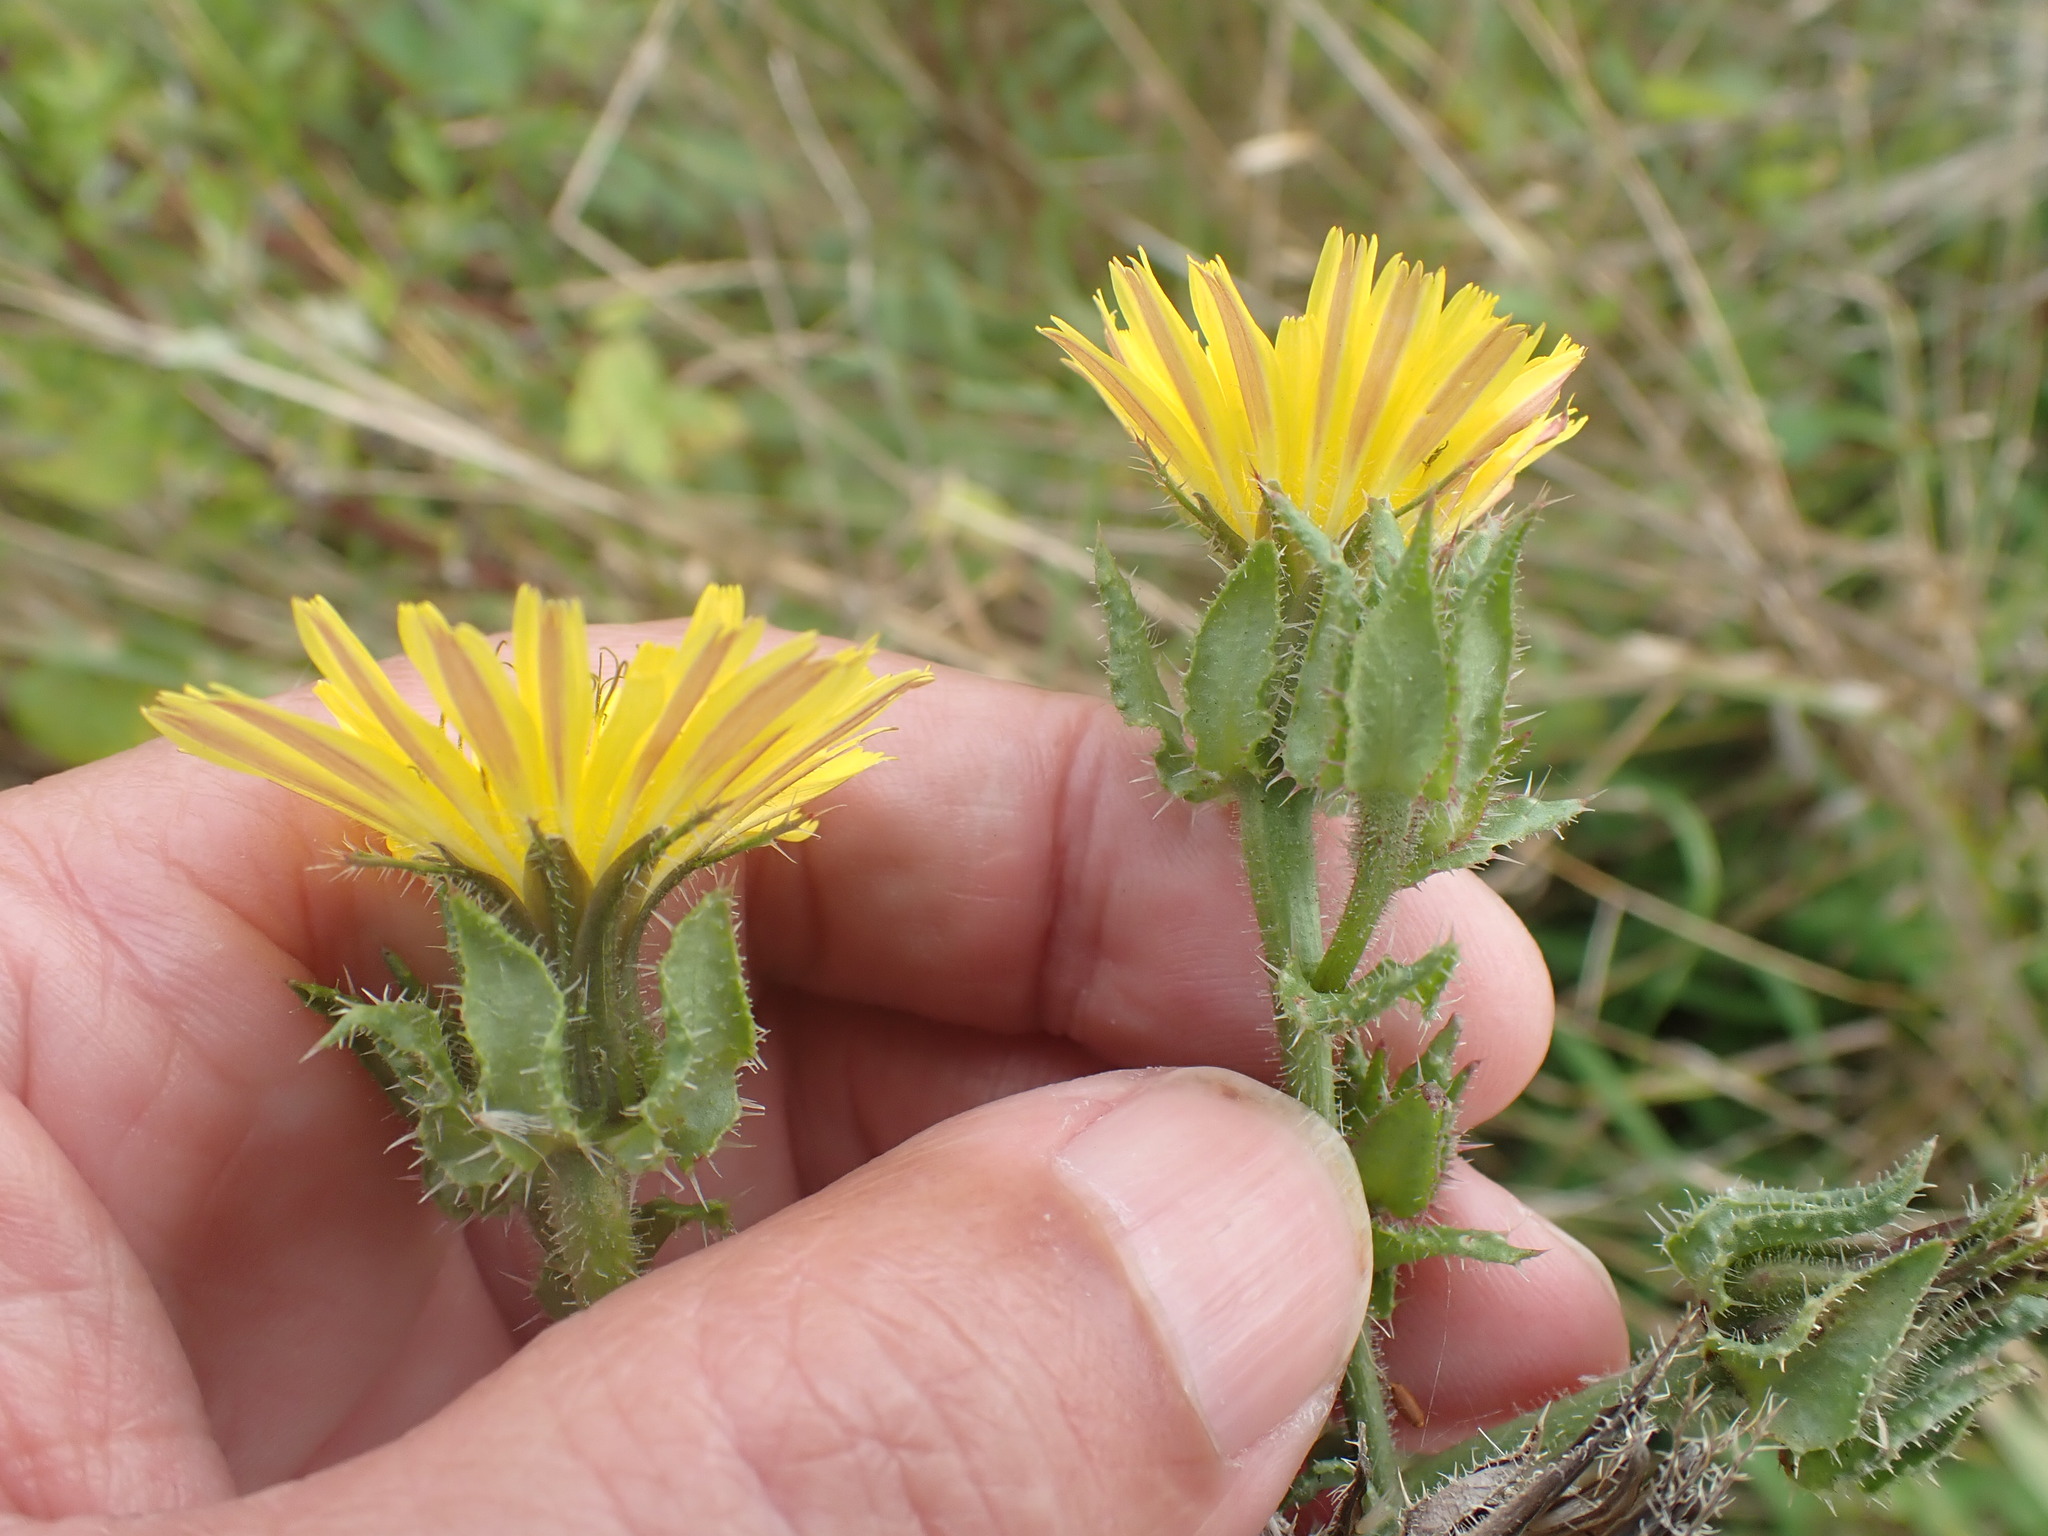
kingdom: Plantae
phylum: Tracheophyta
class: Magnoliopsida
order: Asterales
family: Asteraceae
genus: Helminthotheca
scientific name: Helminthotheca echioides
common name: Ox-tongue
